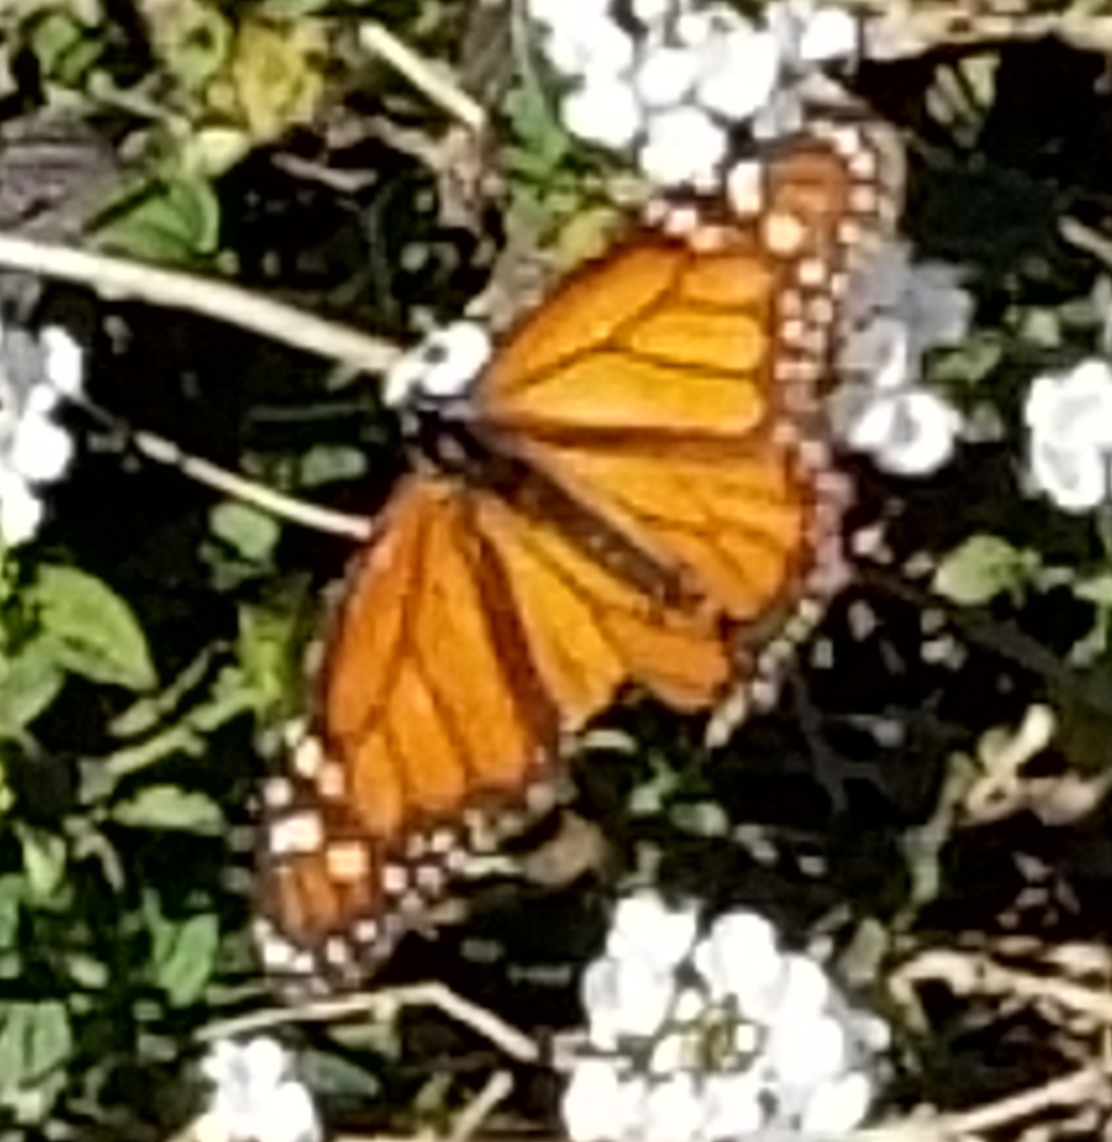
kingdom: Animalia
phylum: Arthropoda
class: Insecta
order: Lepidoptera
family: Nymphalidae
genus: Danaus
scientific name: Danaus plexippus
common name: Monarch
